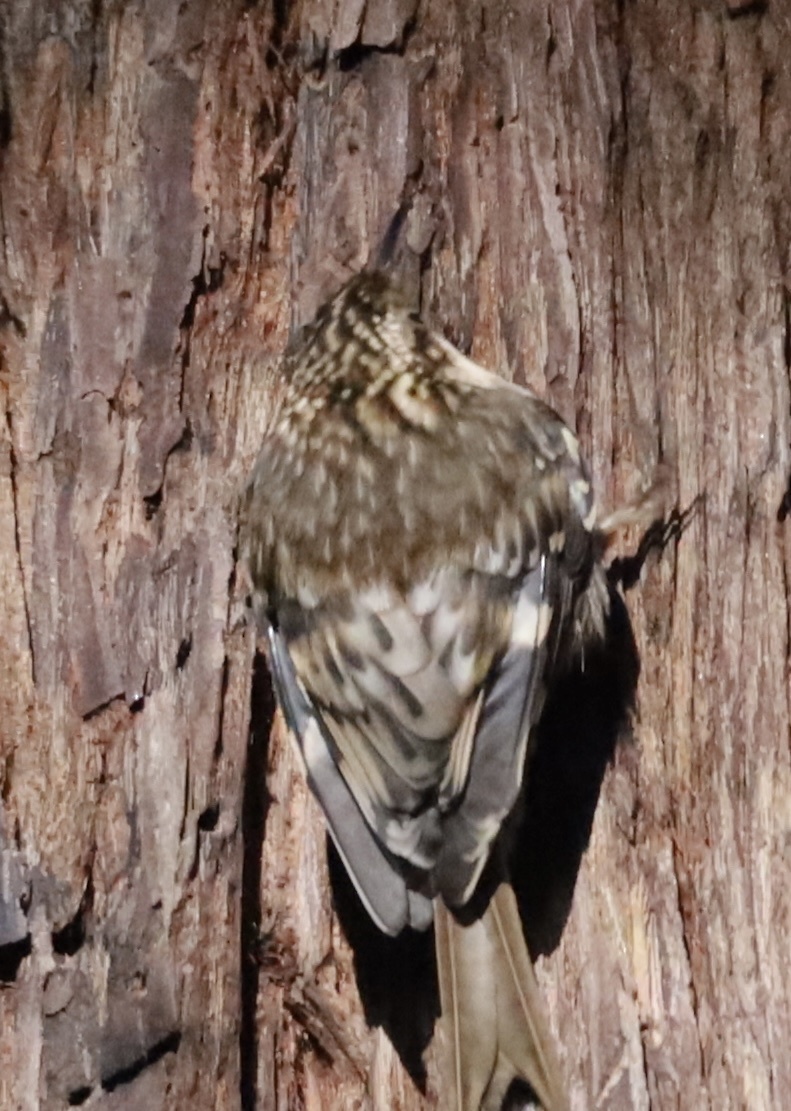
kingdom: Animalia
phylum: Chordata
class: Aves
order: Passeriformes
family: Certhiidae
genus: Certhia
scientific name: Certhia americana
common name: Brown creeper
